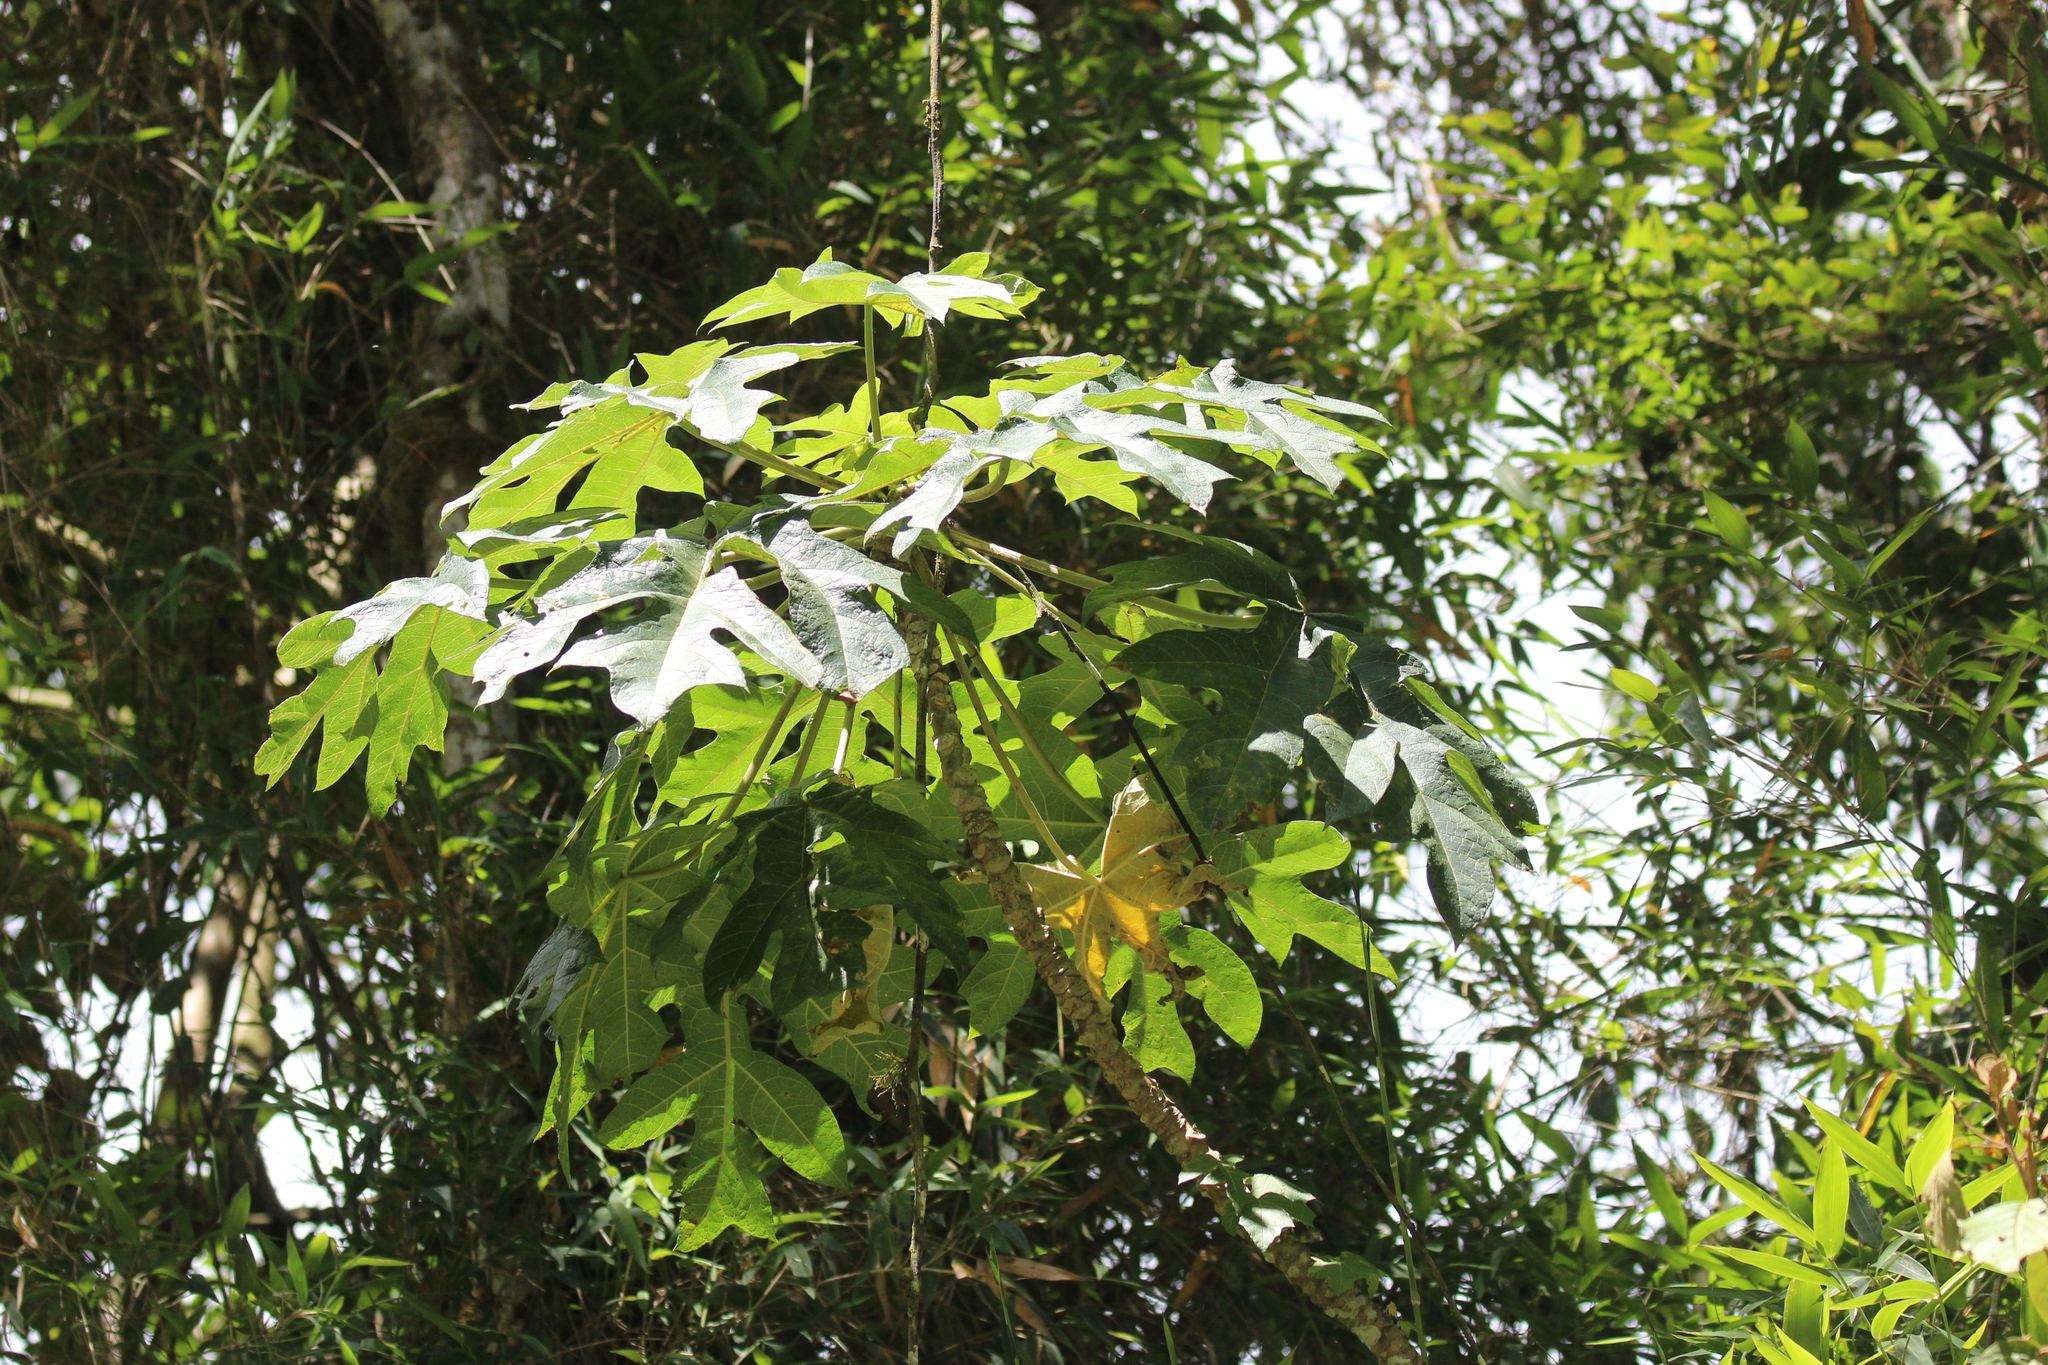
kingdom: Plantae
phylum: Tracheophyta
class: Magnoliopsida
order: Brassicales
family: Caricaceae
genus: Vasconcellea
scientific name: Vasconcellea pubescens
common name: Mountain papaya
